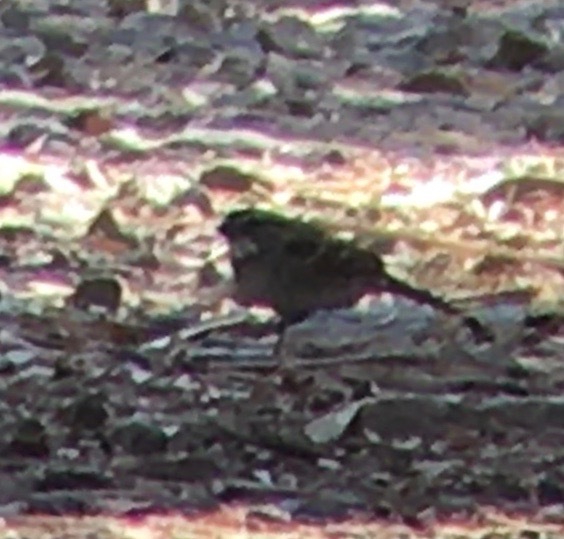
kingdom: Animalia
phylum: Chordata
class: Aves
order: Passeriformes
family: Passerellidae
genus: Zonotrichia
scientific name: Zonotrichia albicollis
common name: White-throated sparrow
